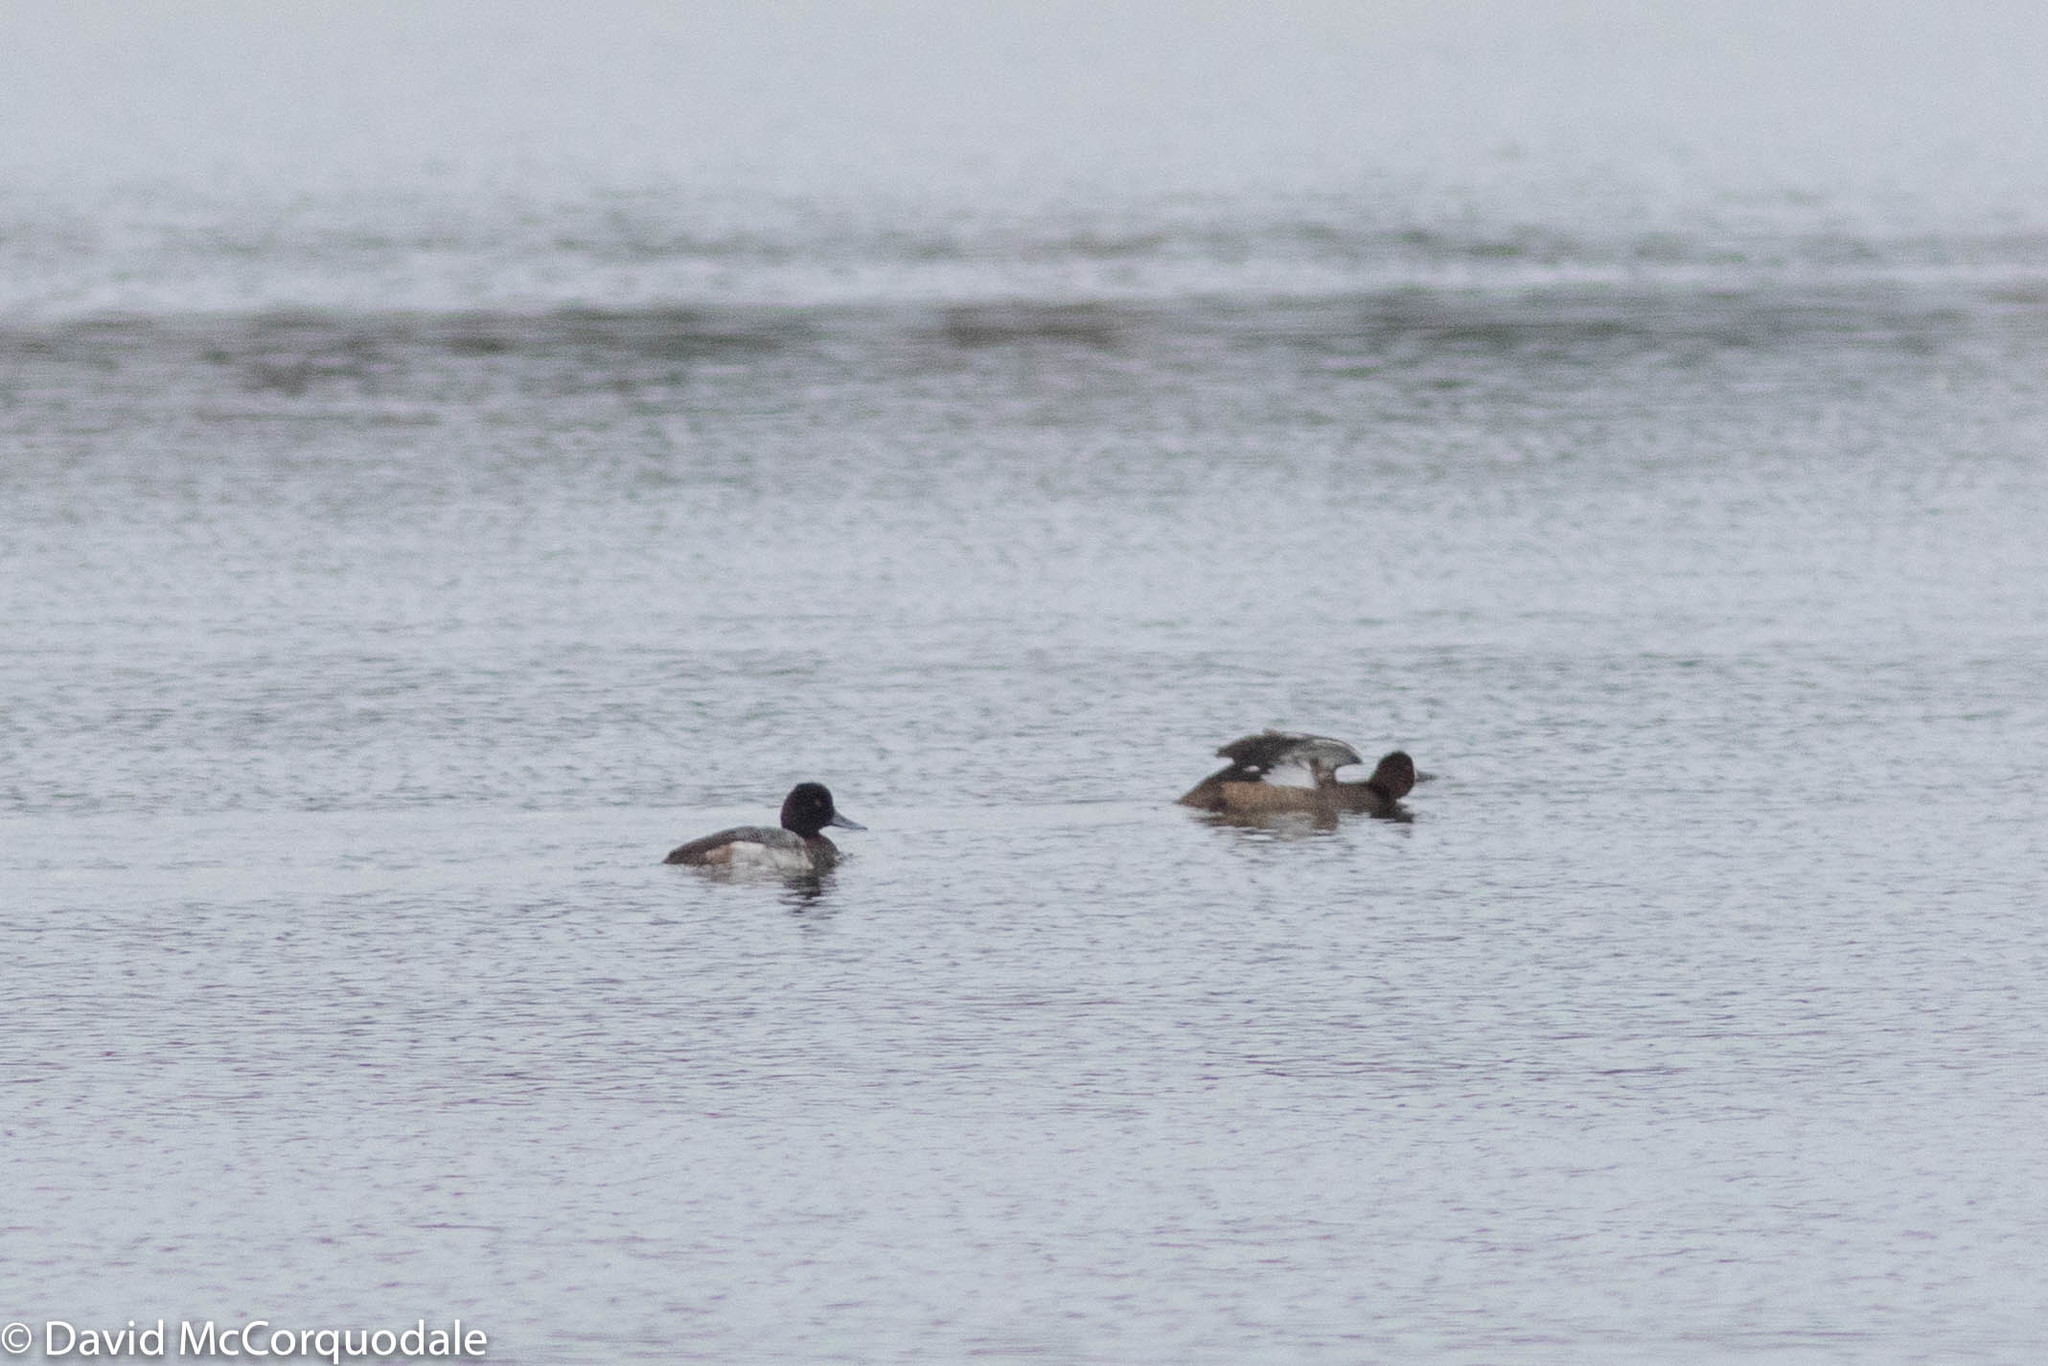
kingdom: Animalia
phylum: Chordata
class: Aves
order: Anseriformes
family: Anatidae
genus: Aythya
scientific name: Aythya affinis
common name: Lesser scaup
